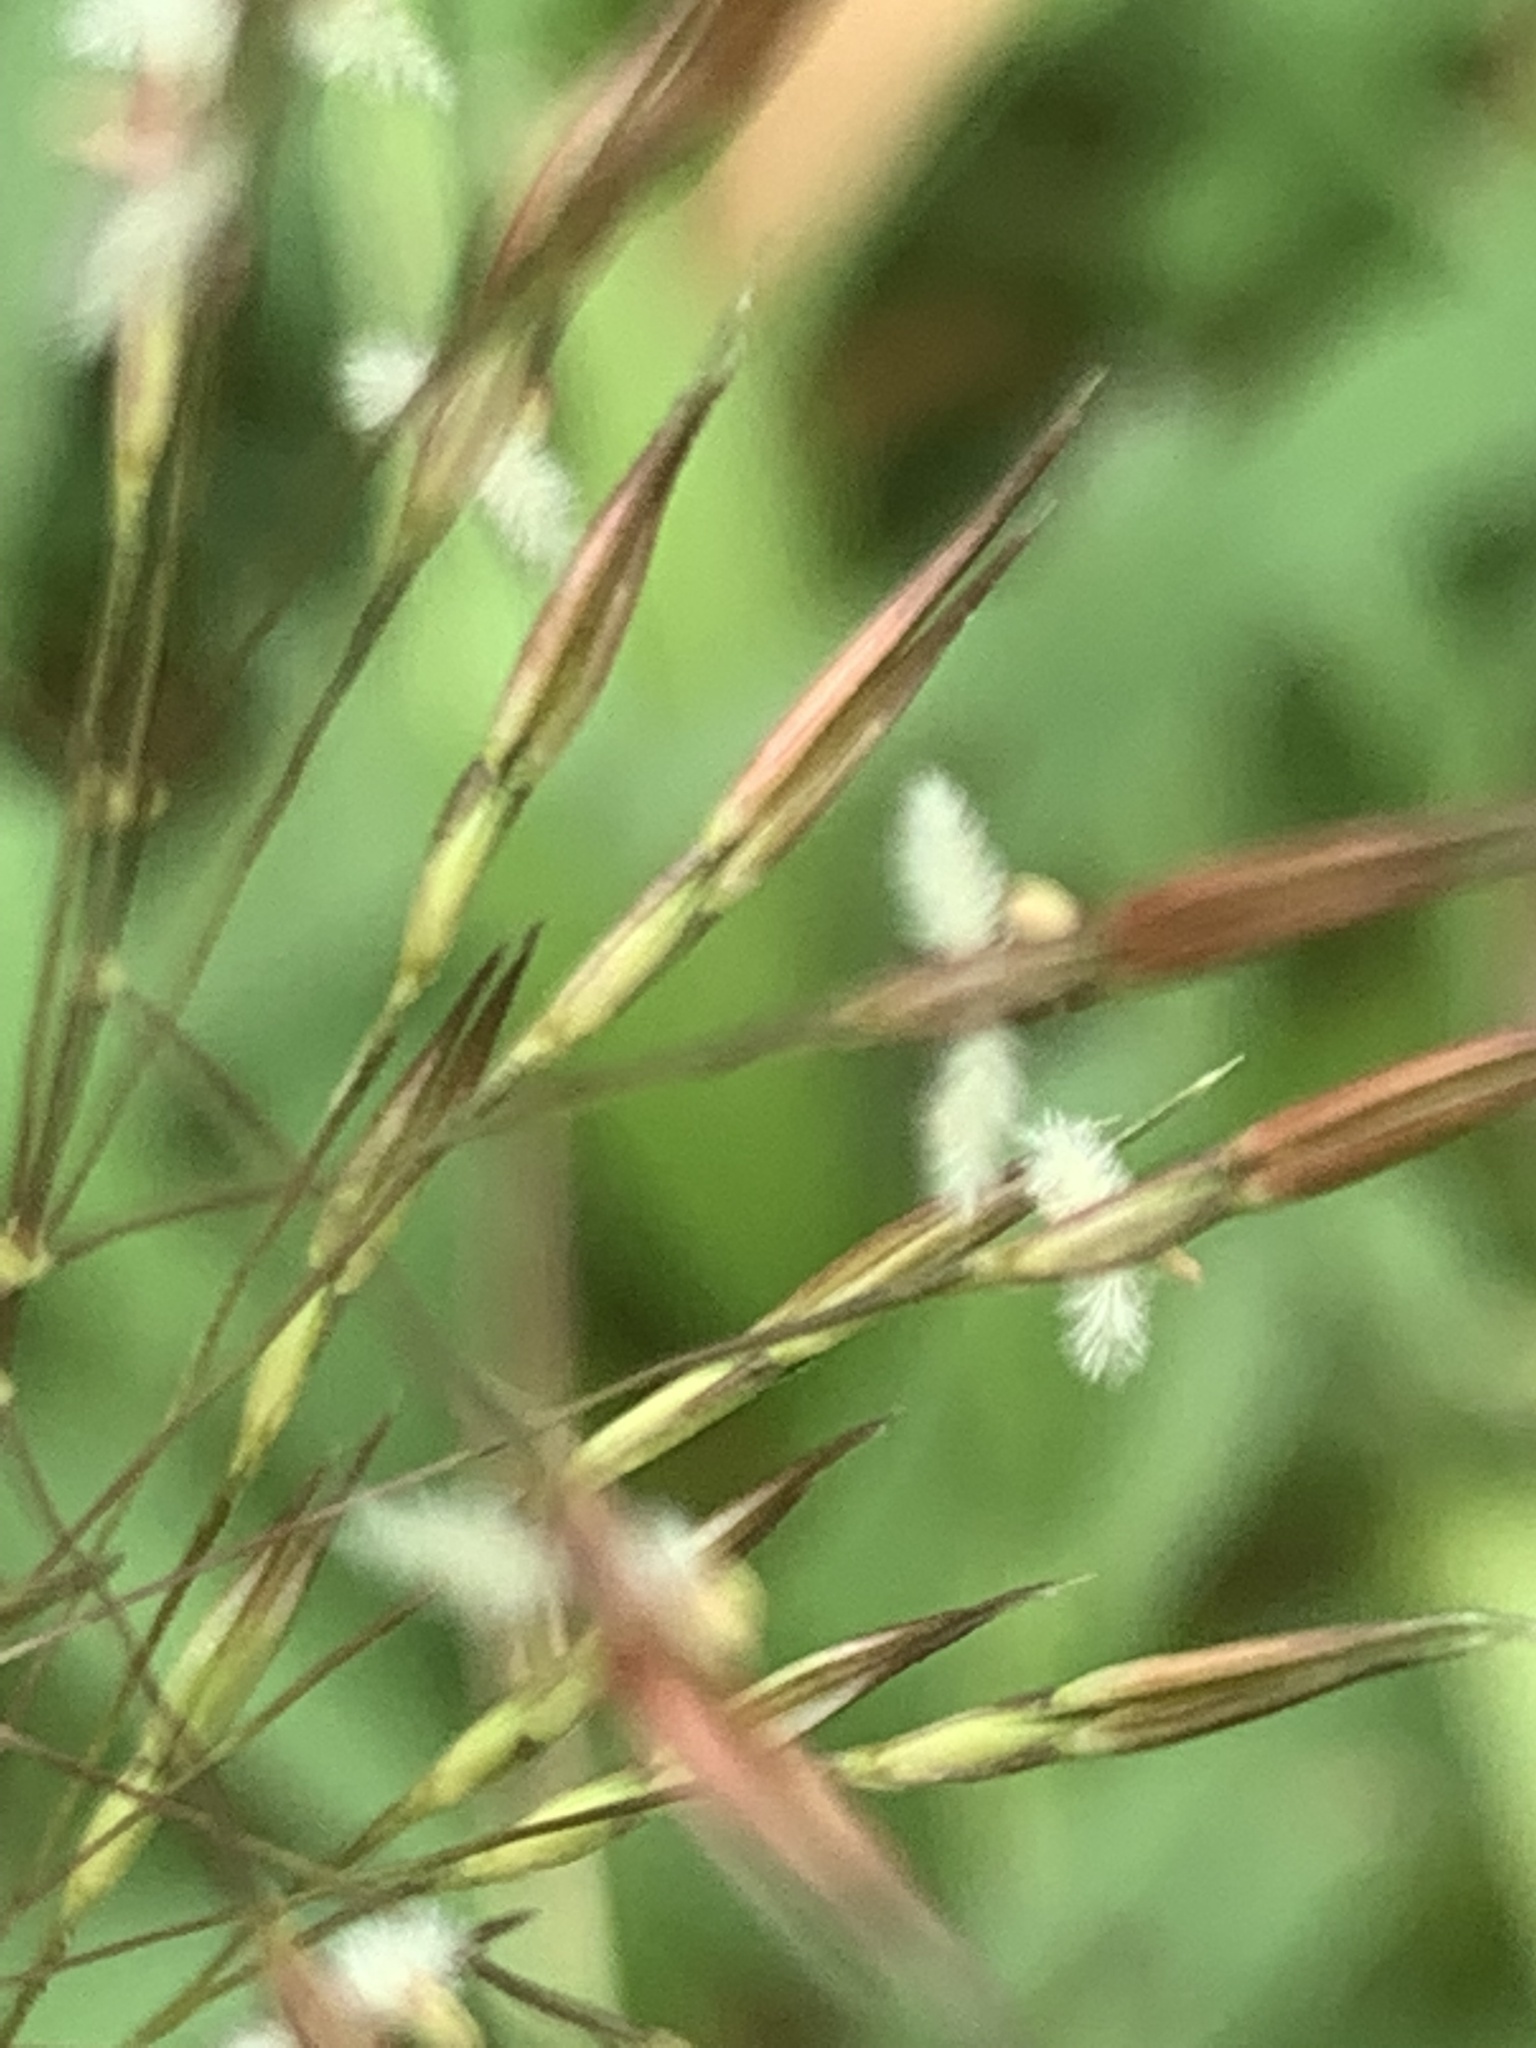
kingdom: Plantae
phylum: Tracheophyta
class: Liliopsida
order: Poales
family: Poaceae
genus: Chrysopogon
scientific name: Chrysopogon aciculatus
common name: Pilipiliula
